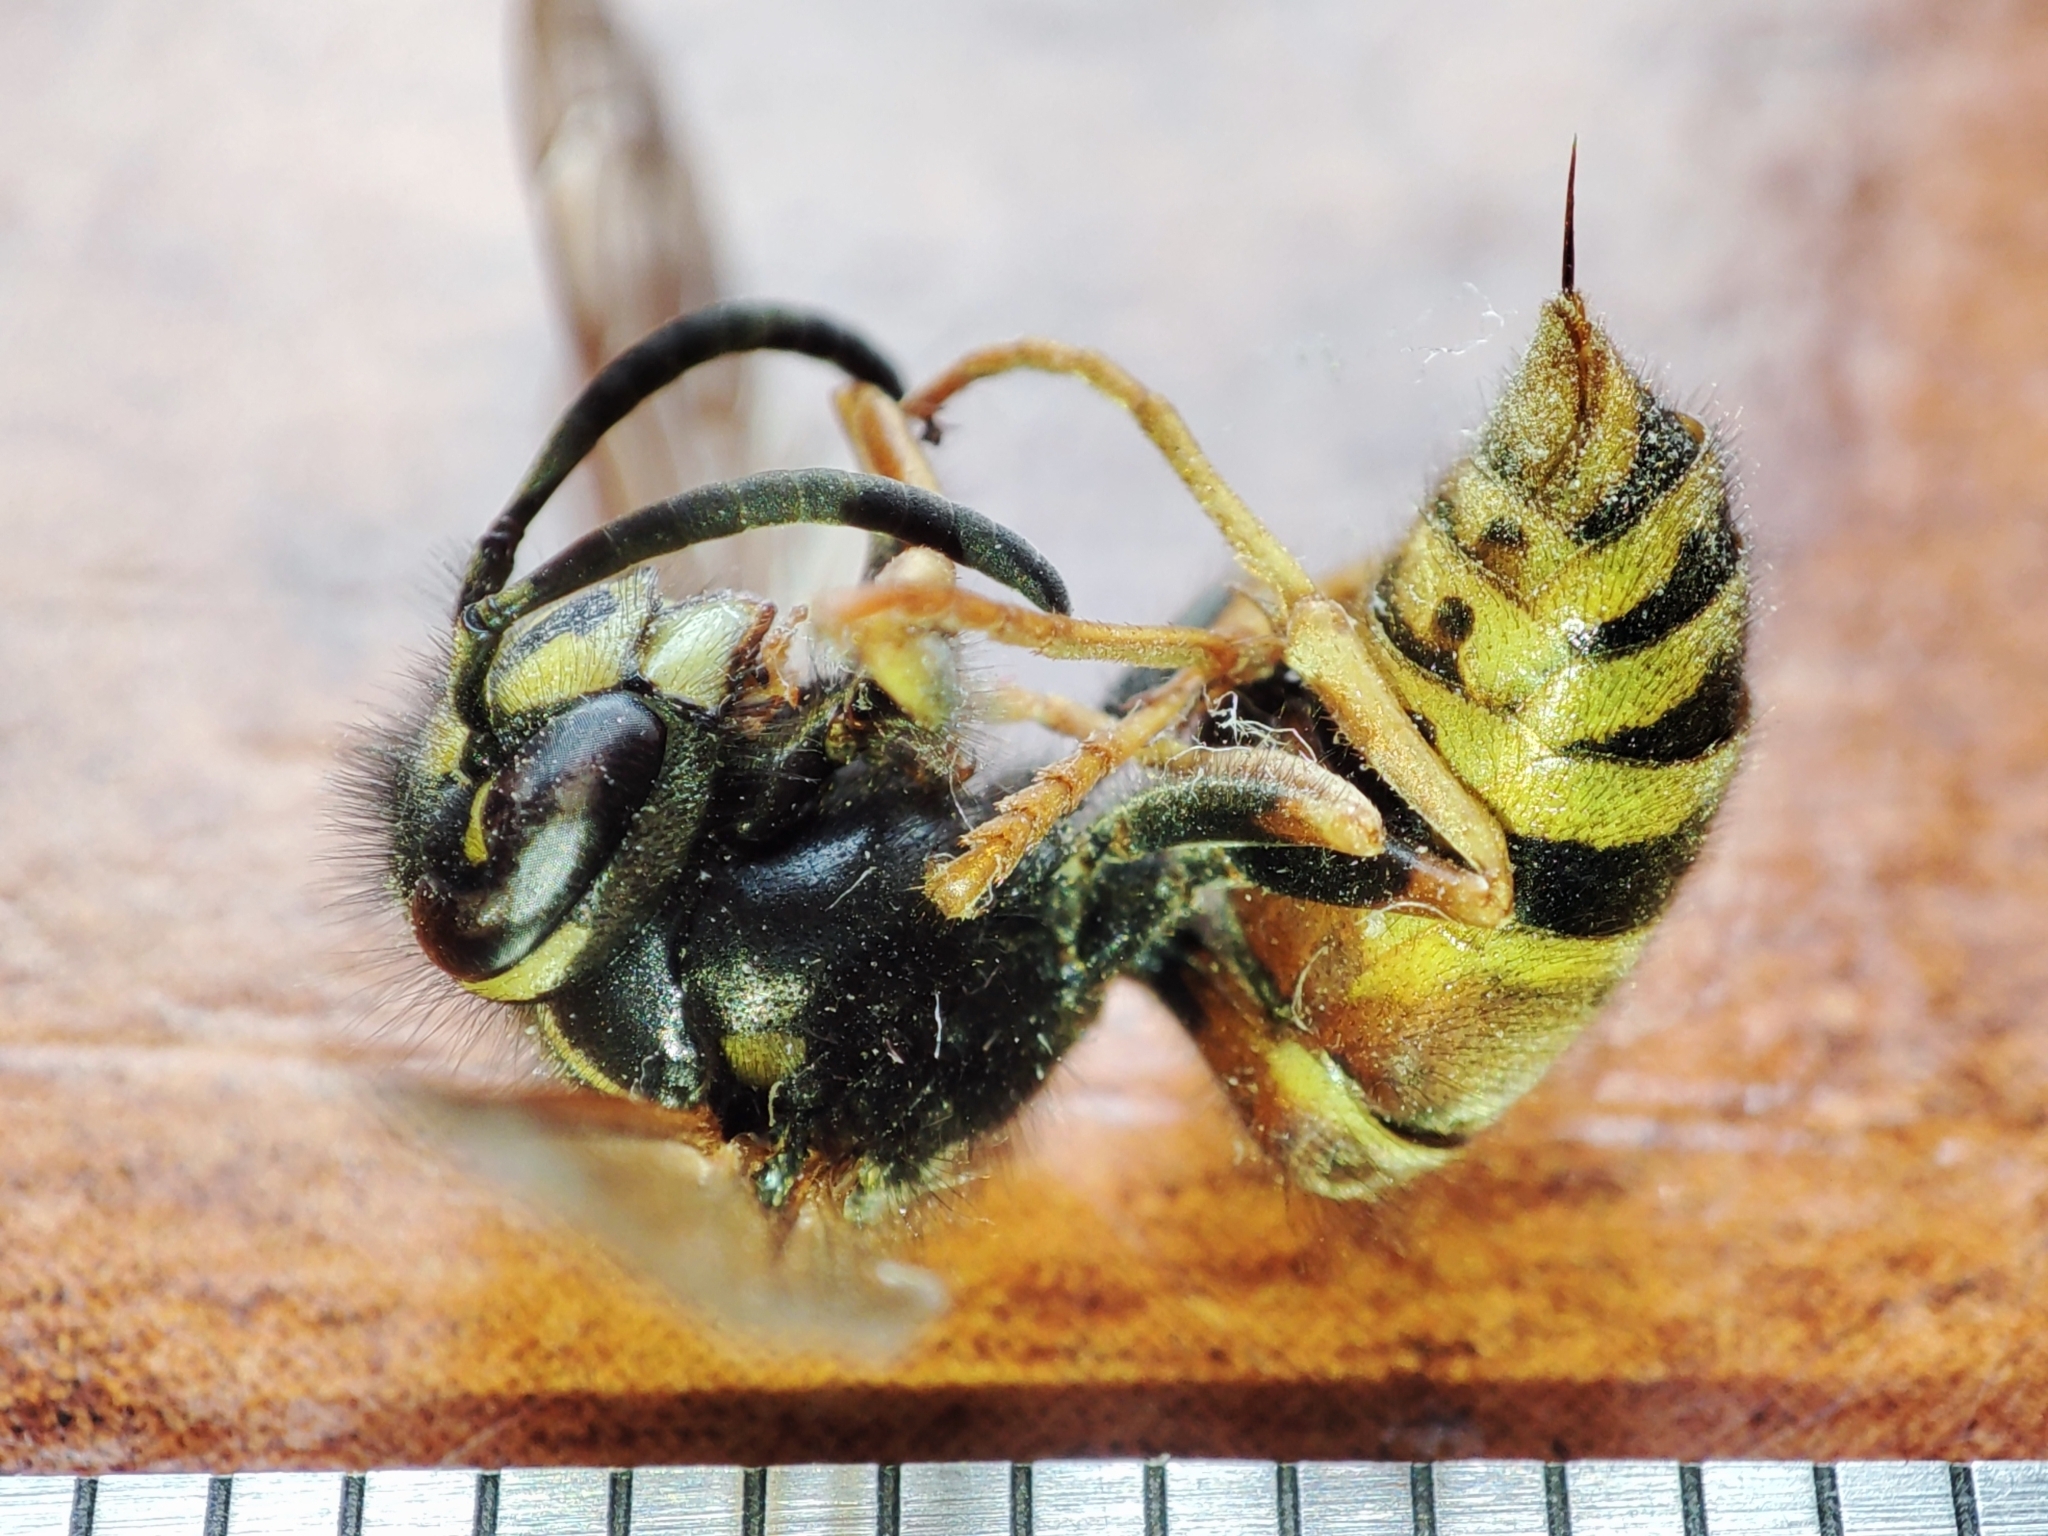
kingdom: Animalia
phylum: Arthropoda
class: Insecta
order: Hymenoptera
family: Vespidae
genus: Vespula
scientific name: Vespula rufa
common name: Red wasp
